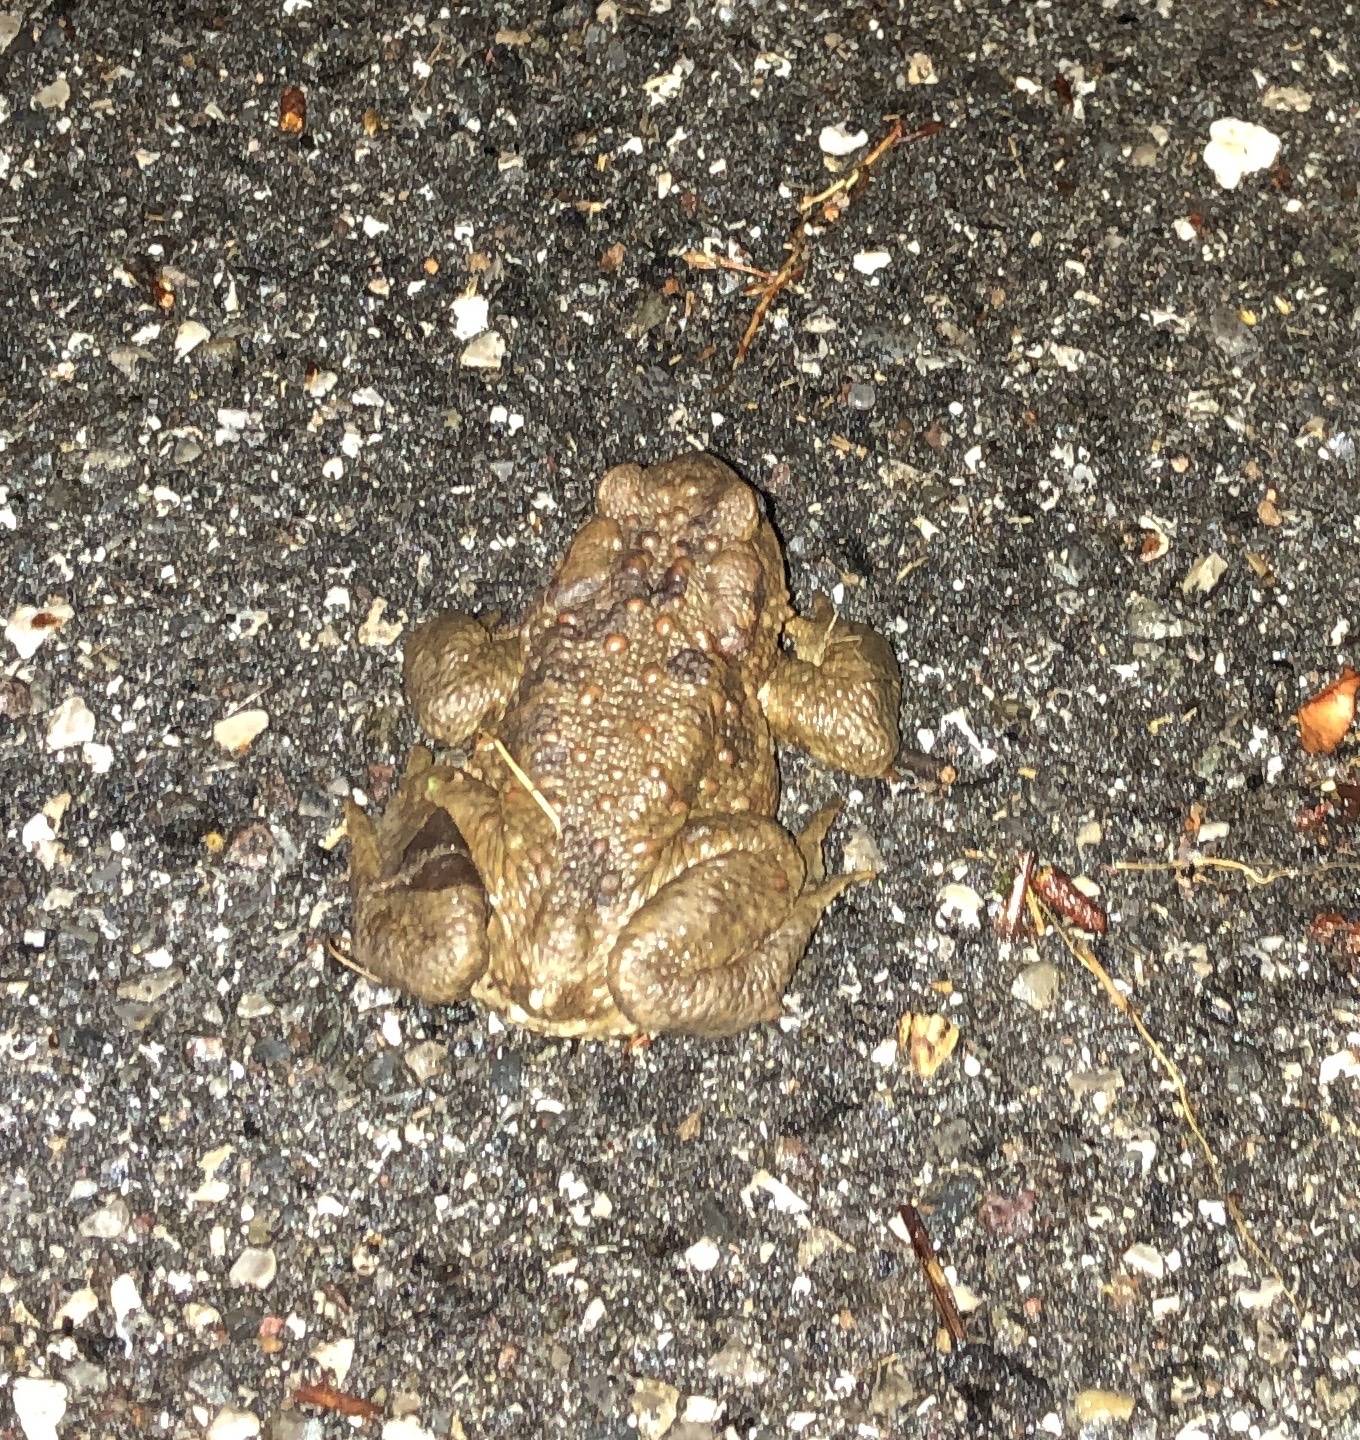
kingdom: Animalia
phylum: Chordata
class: Amphibia
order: Anura
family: Bufonidae
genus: Bufo
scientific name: Bufo bufo
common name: Common toad
